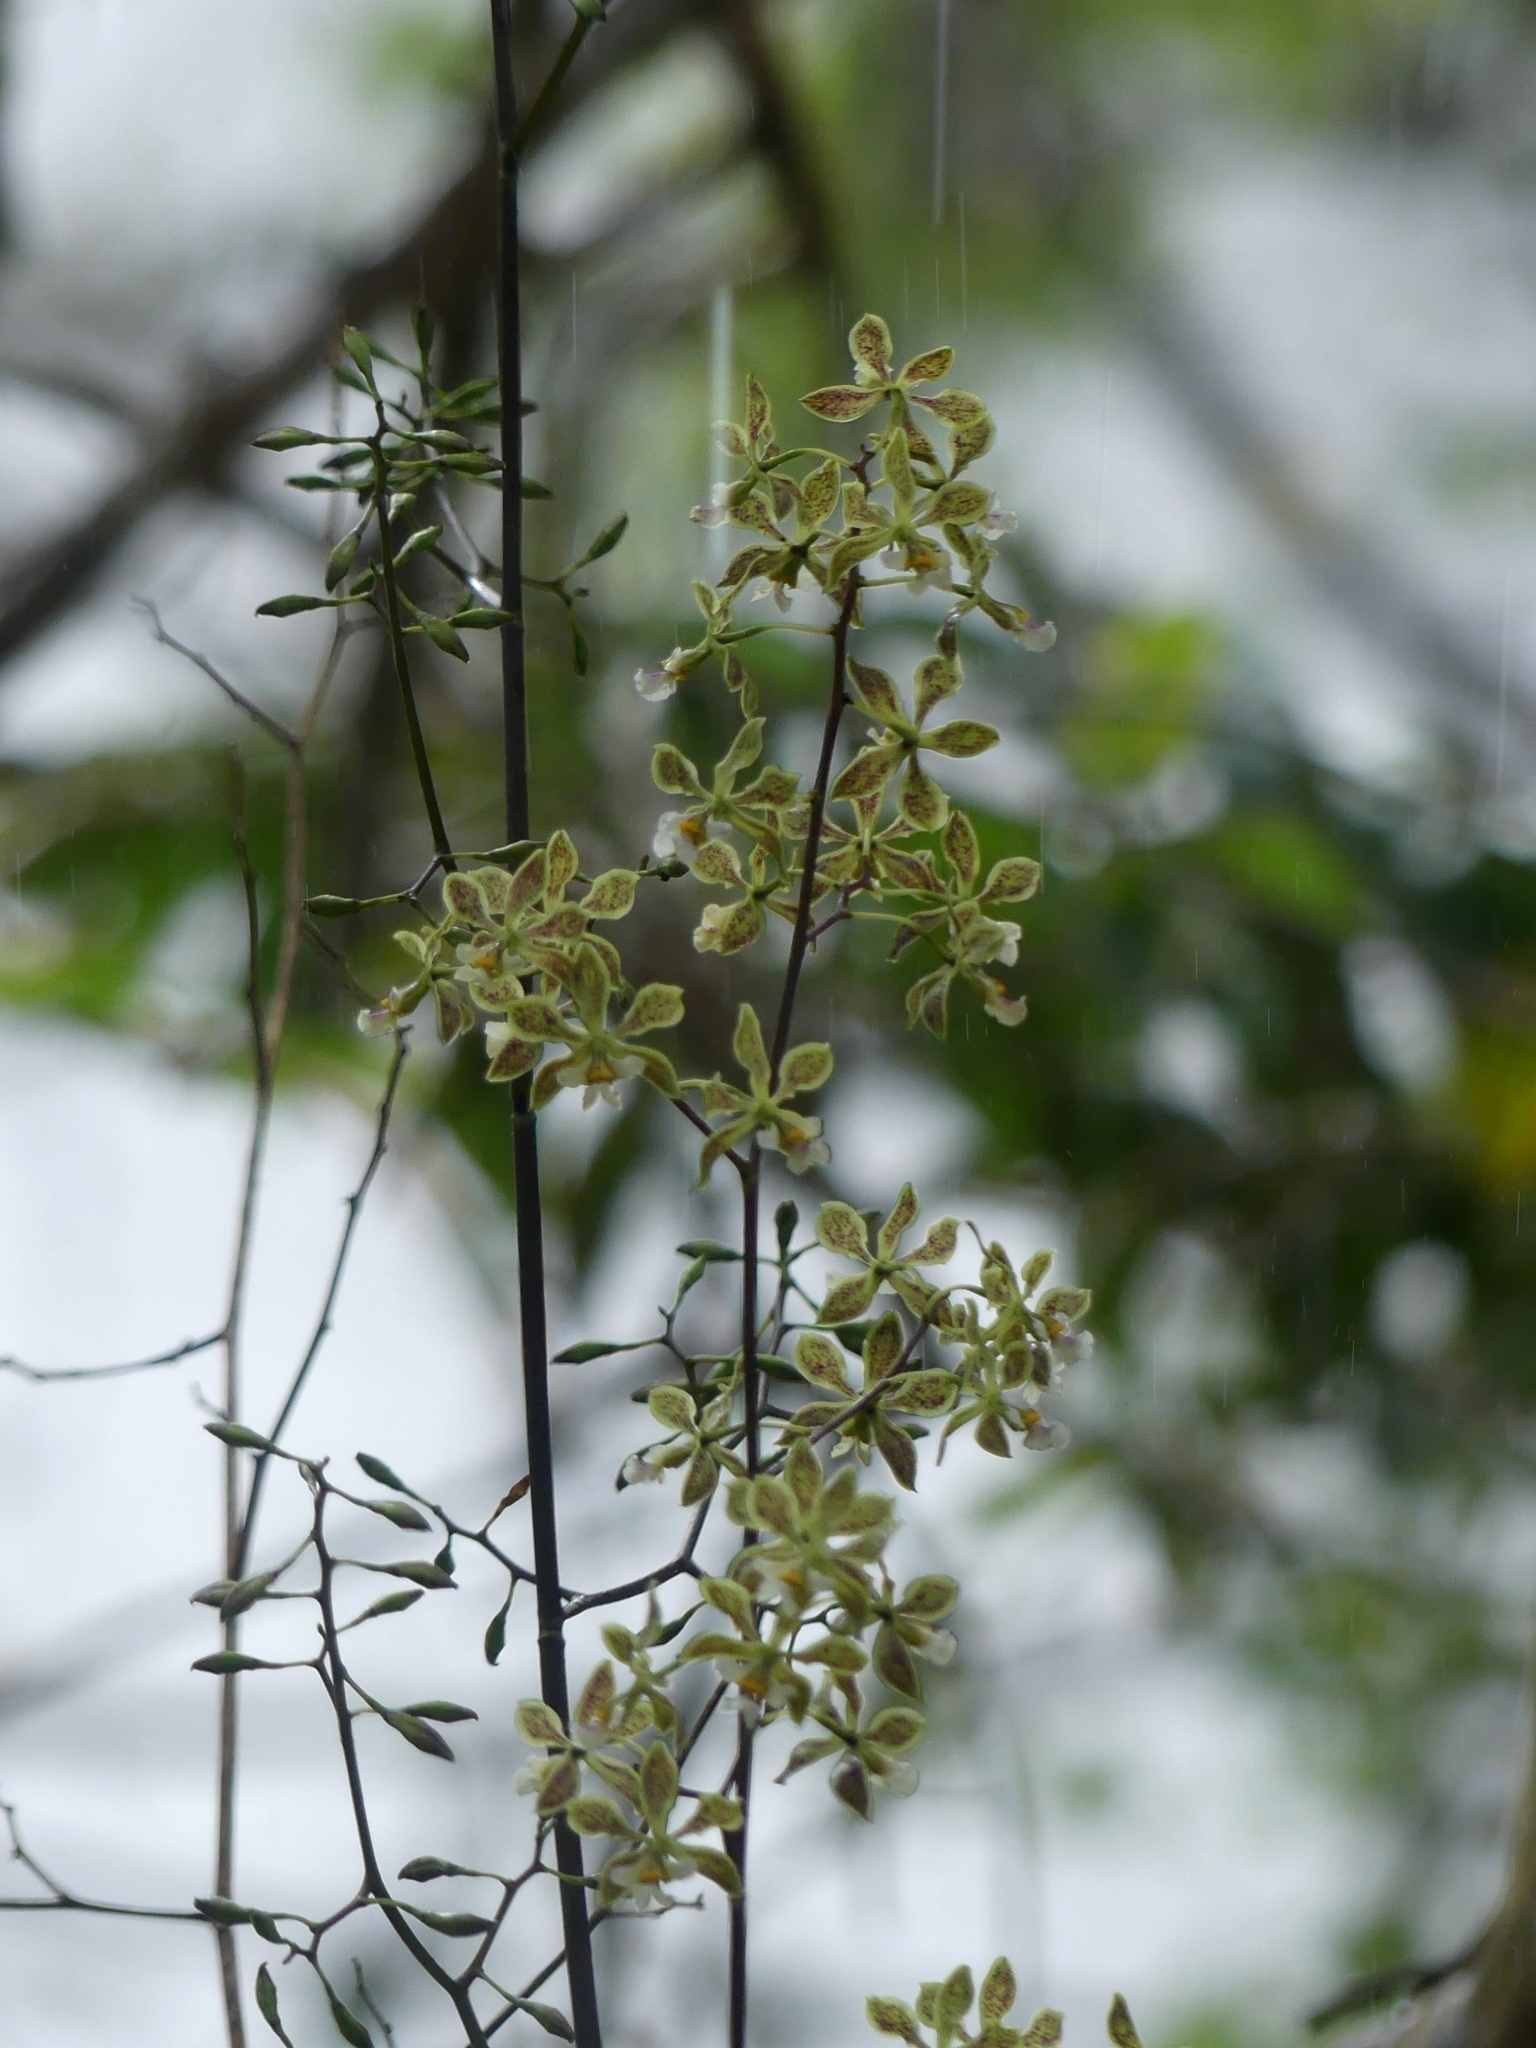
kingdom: Plantae
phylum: Tracheophyta
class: Liliopsida
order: Asparagales
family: Orchidaceae
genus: Encyclia
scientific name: Encyclia granitica
